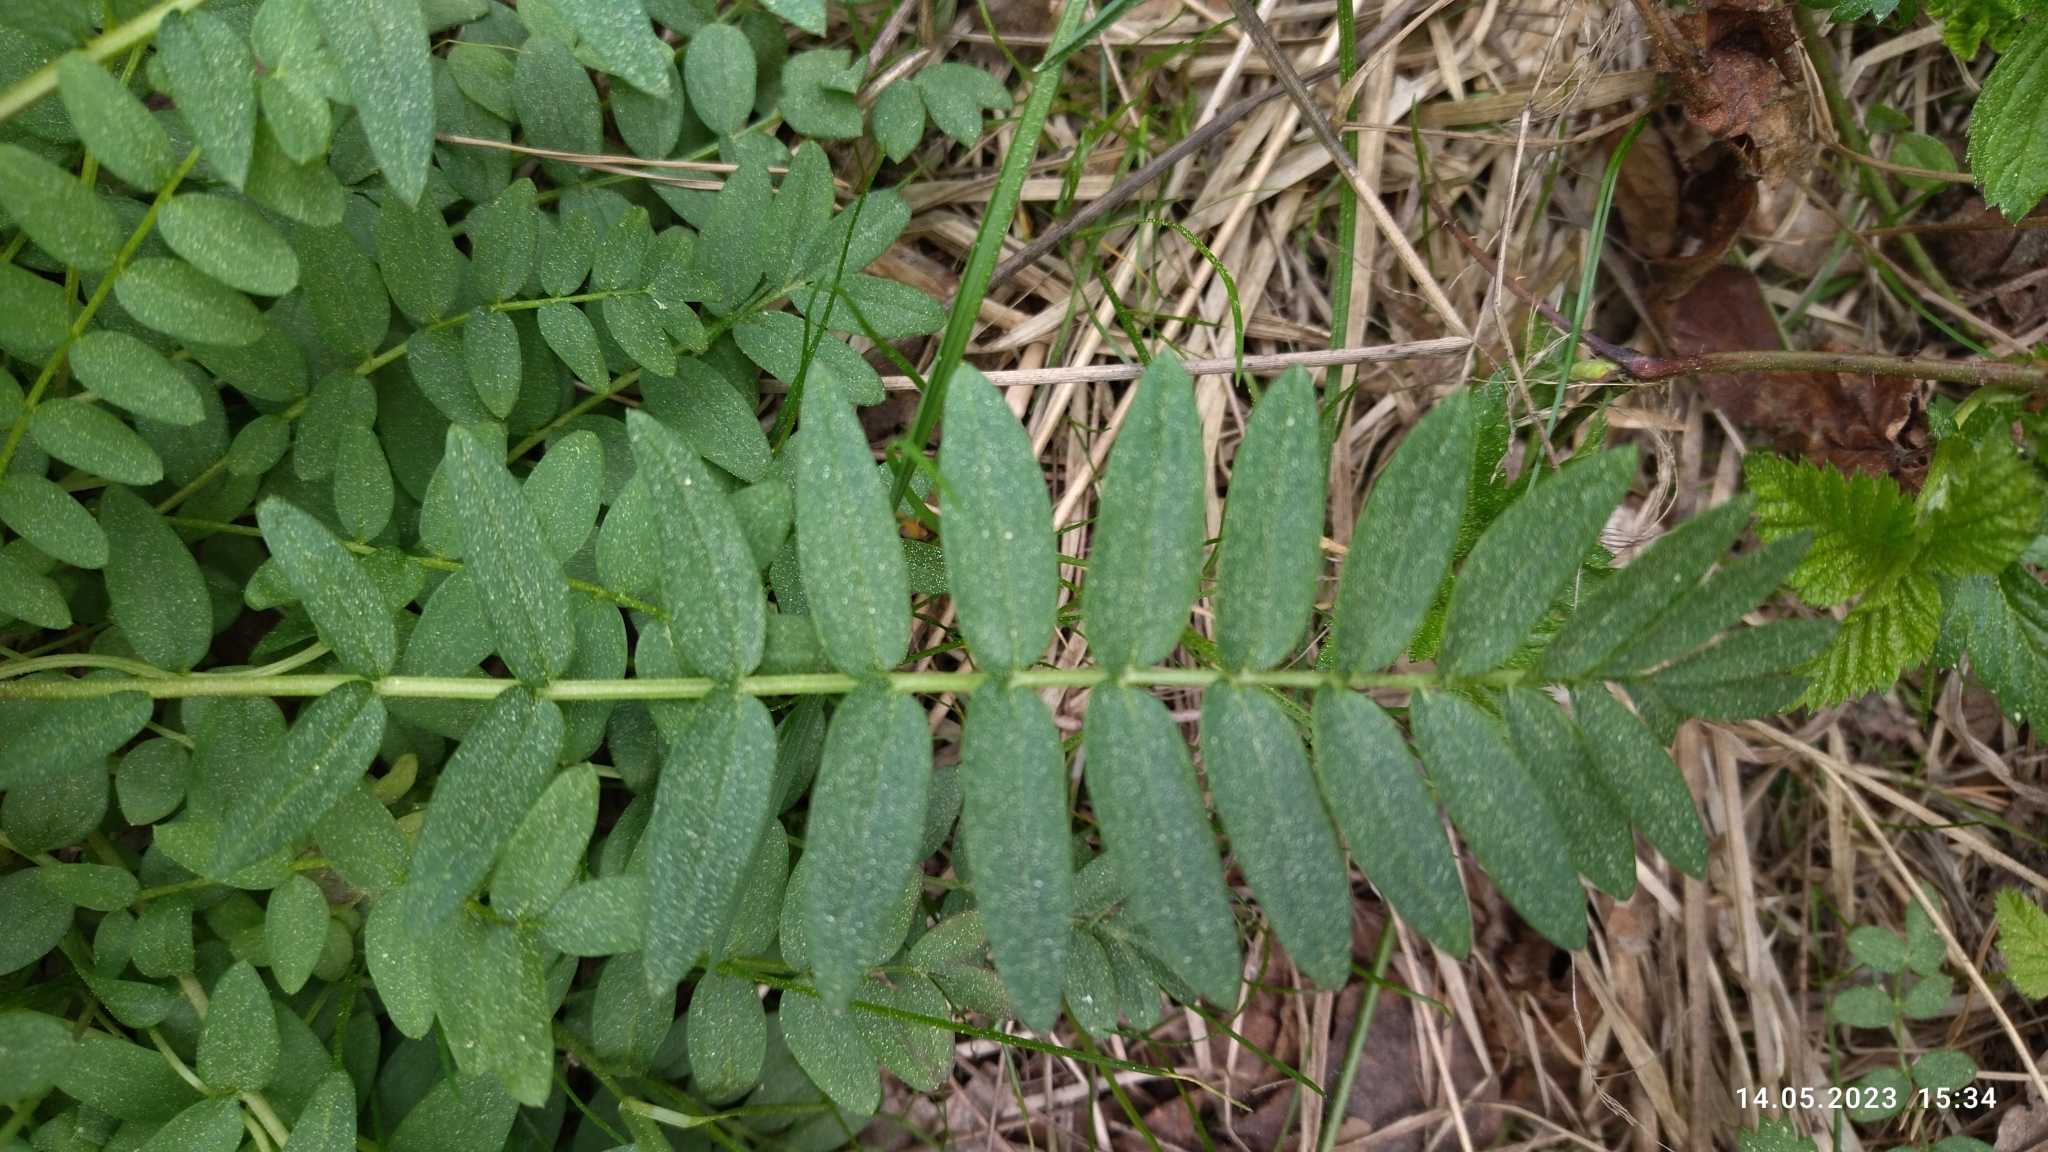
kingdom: Plantae
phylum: Tracheophyta
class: Magnoliopsida
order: Ericales
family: Polemoniaceae
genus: Polemonium
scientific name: Polemonium caeruleum
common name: Jacob's-ladder
